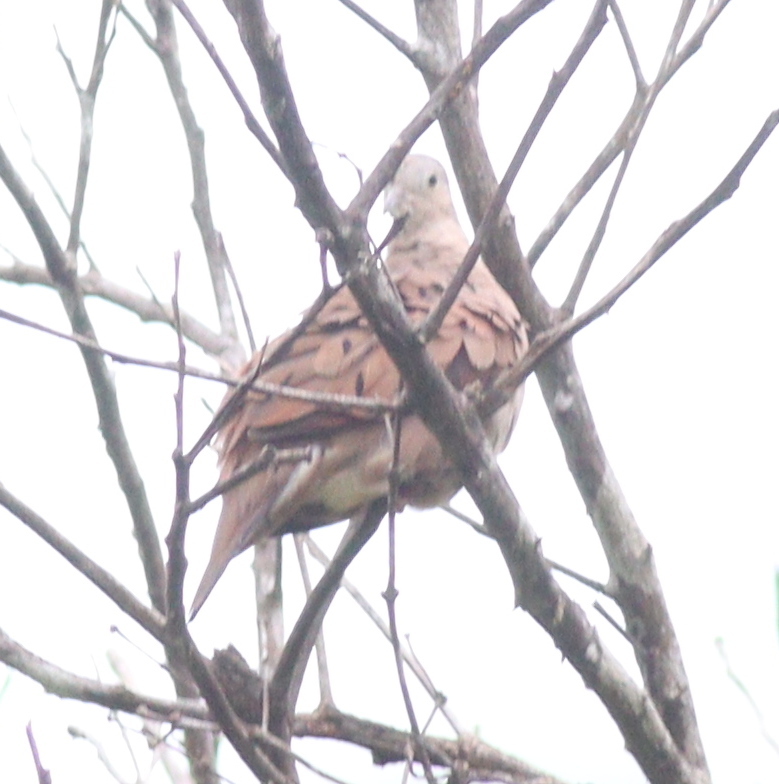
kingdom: Animalia
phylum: Chordata
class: Aves
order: Columbiformes
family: Columbidae
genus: Columbina
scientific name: Columbina talpacoti
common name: Ruddy ground dove
